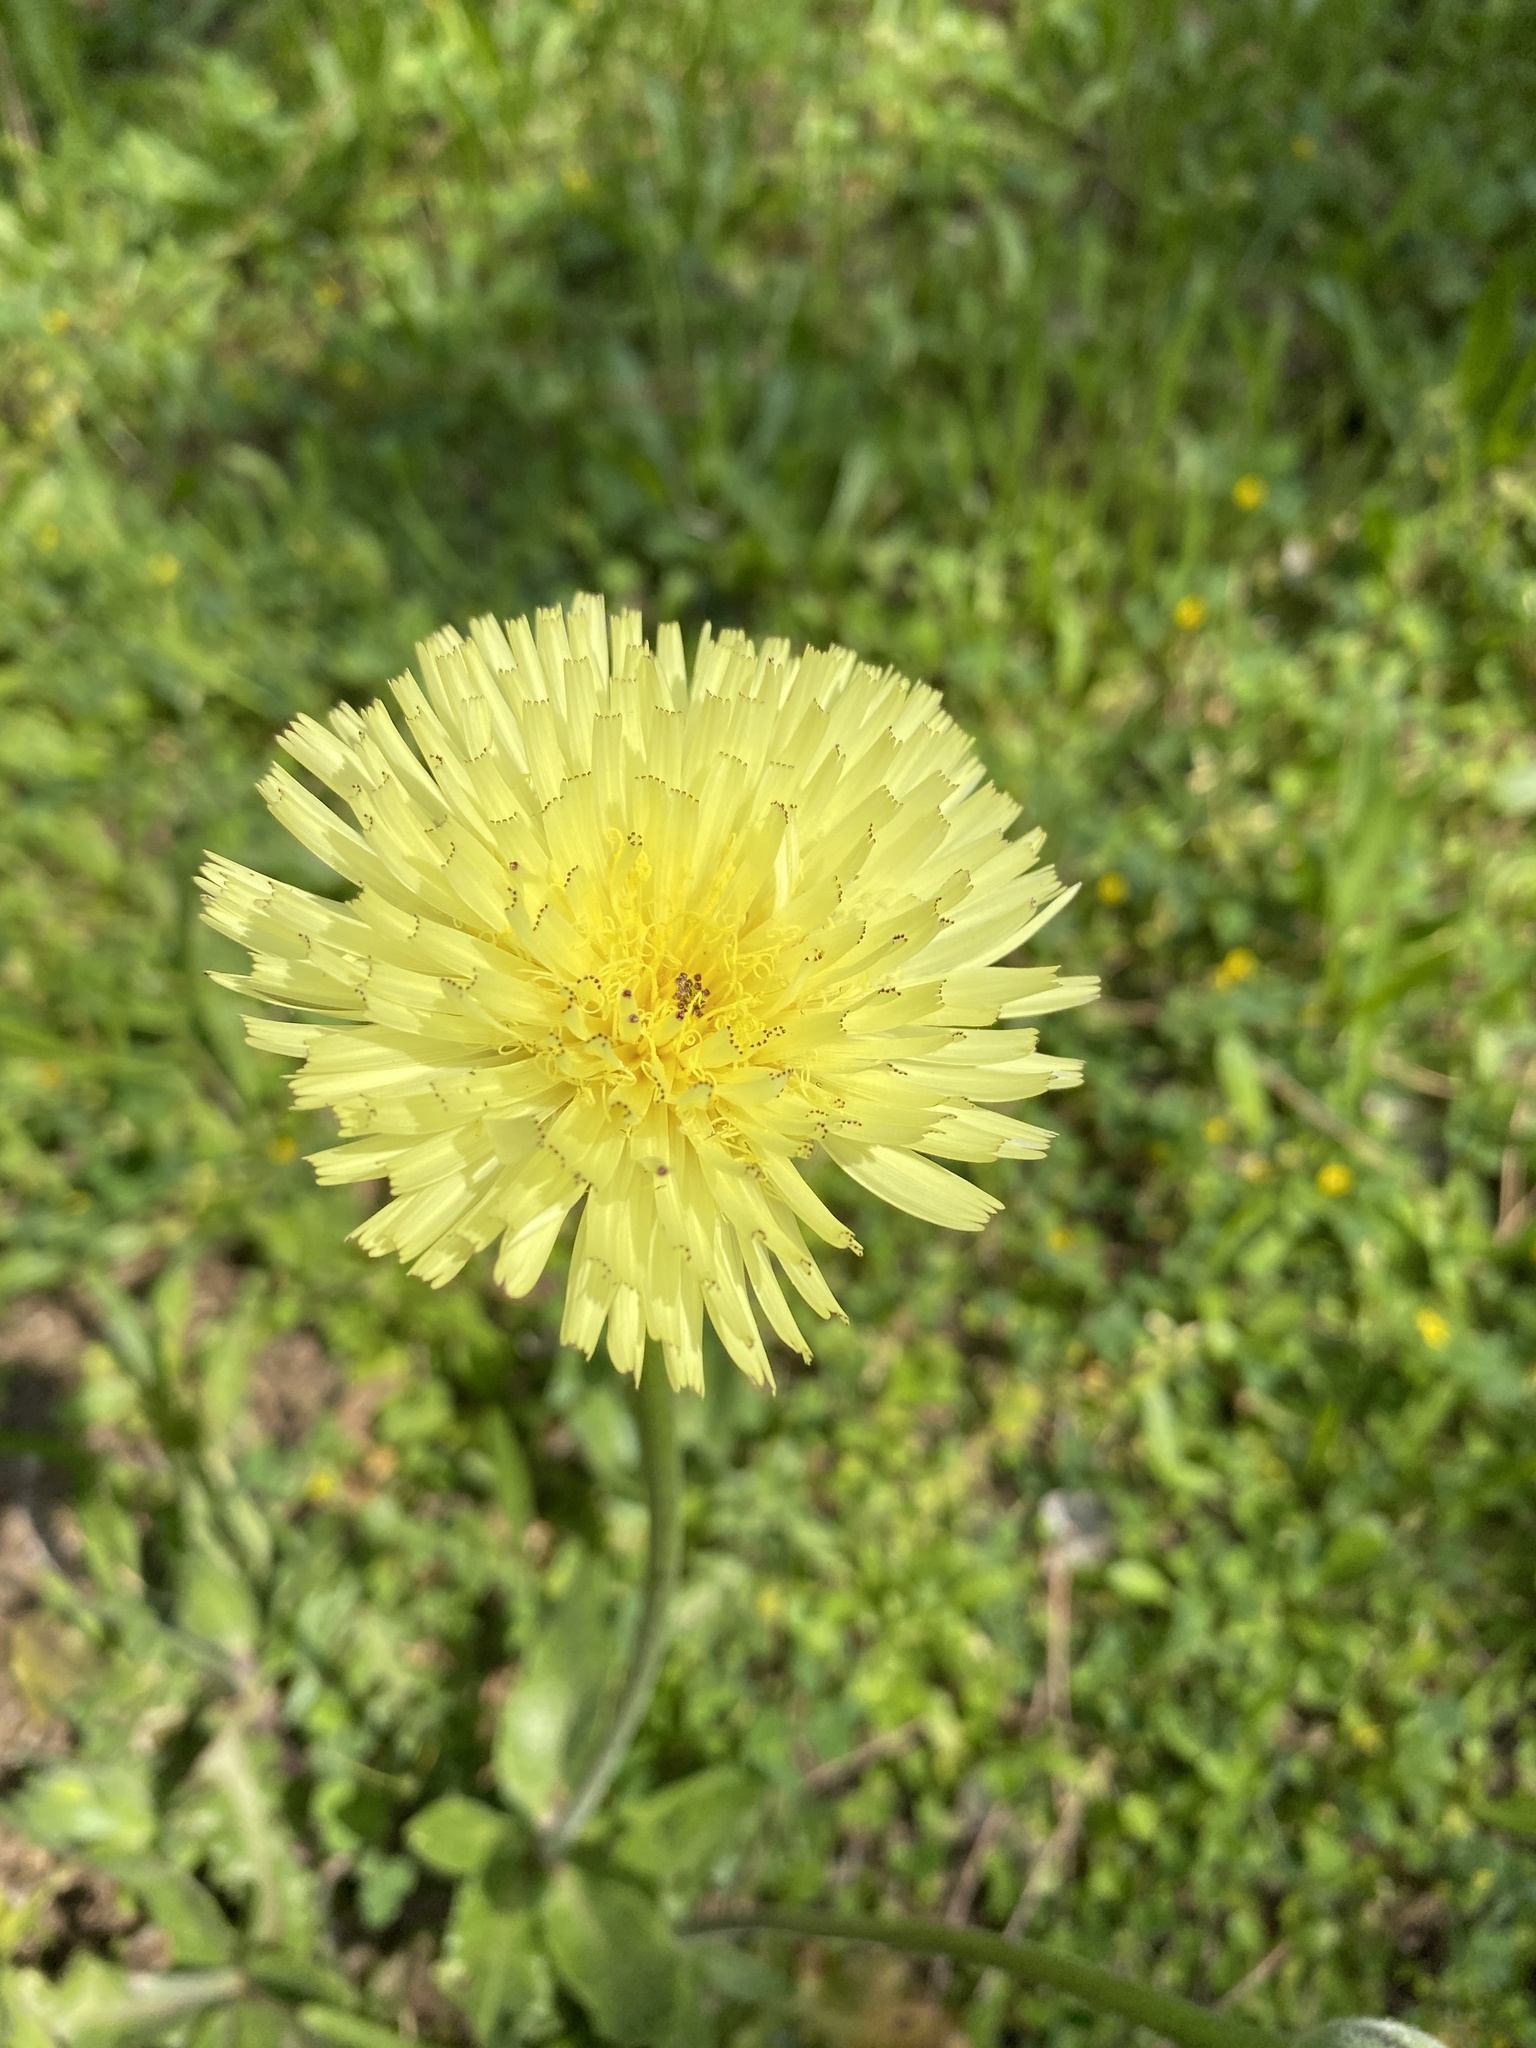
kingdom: Plantae
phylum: Tracheophyta
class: Magnoliopsida
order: Asterales
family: Asteraceae
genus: Urospermum
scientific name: Urospermum dalechampii
